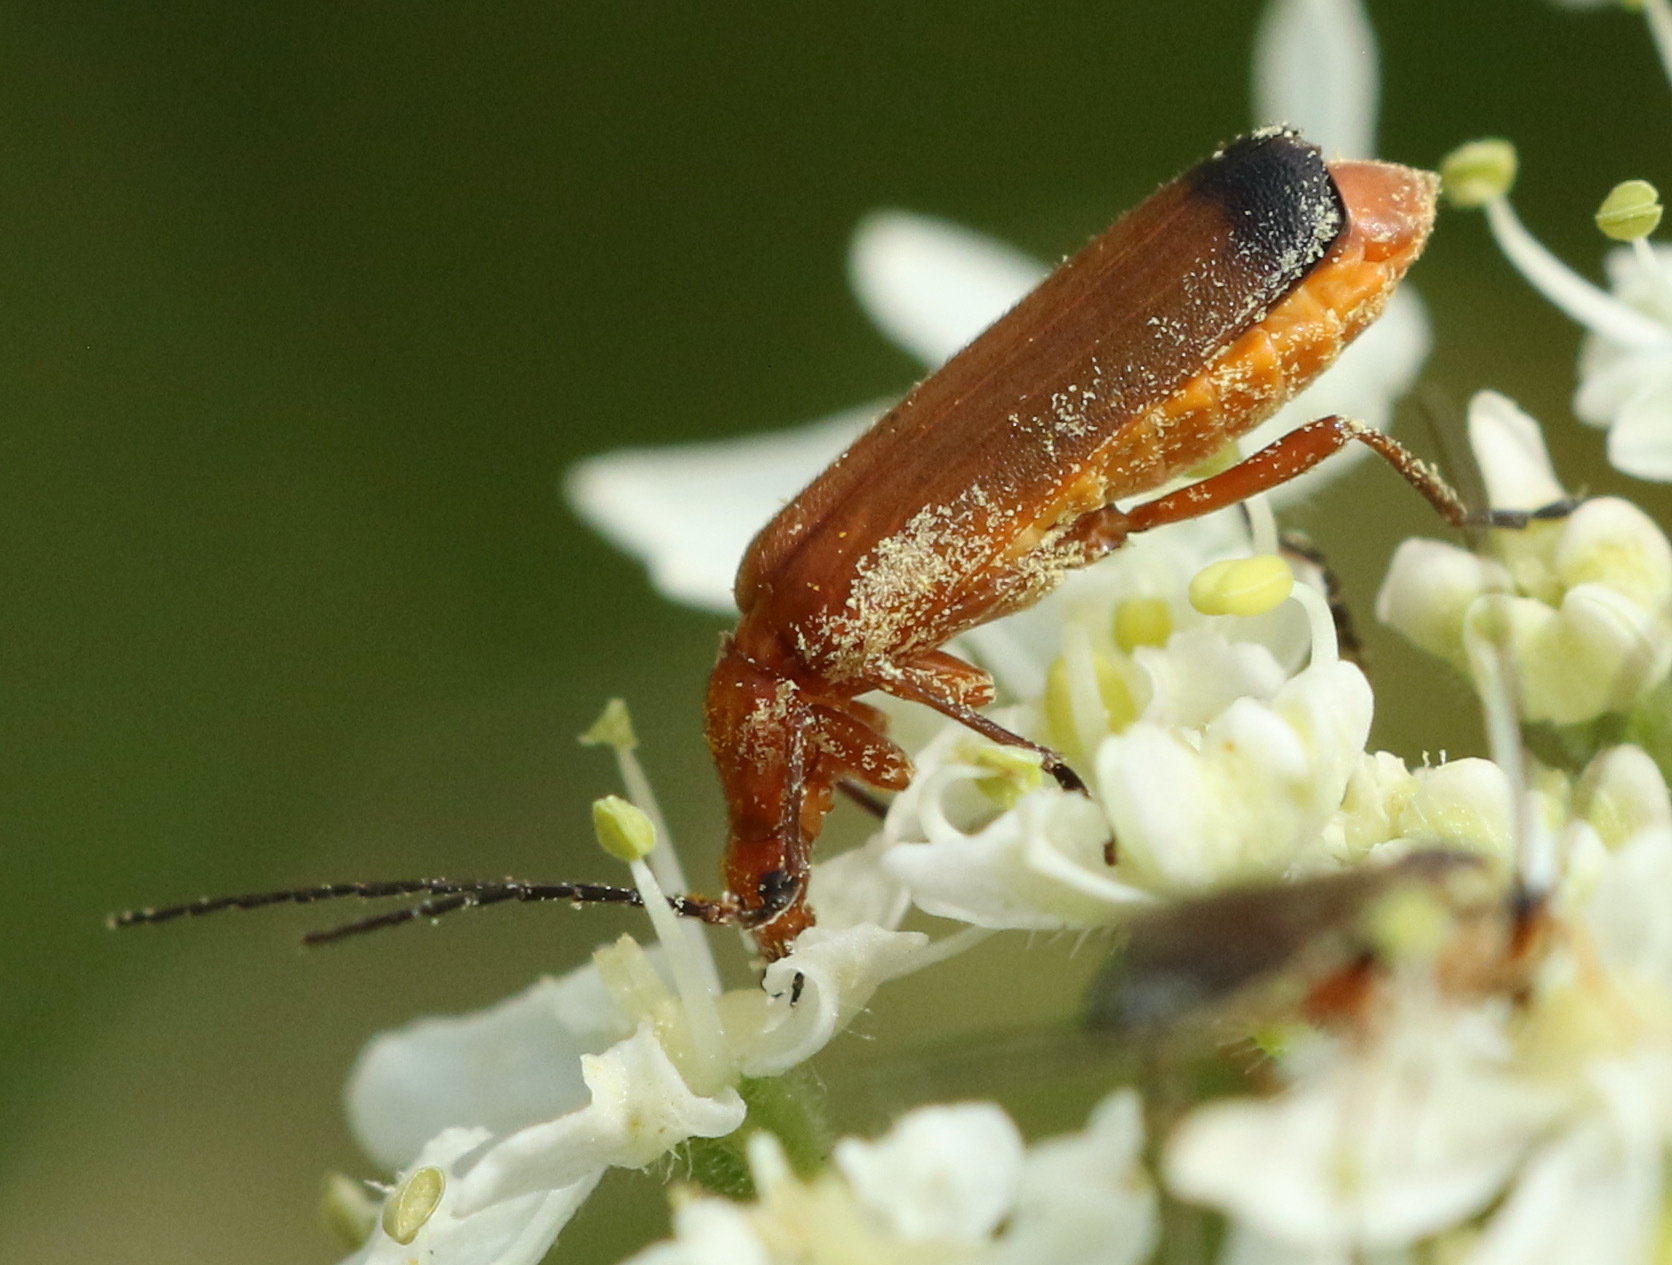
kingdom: Animalia
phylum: Arthropoda
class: Insecta
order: Coleoptera
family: Cantharidae
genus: Rhagonycha
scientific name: Rhagonycha fulva
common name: Common red soldier beetle
